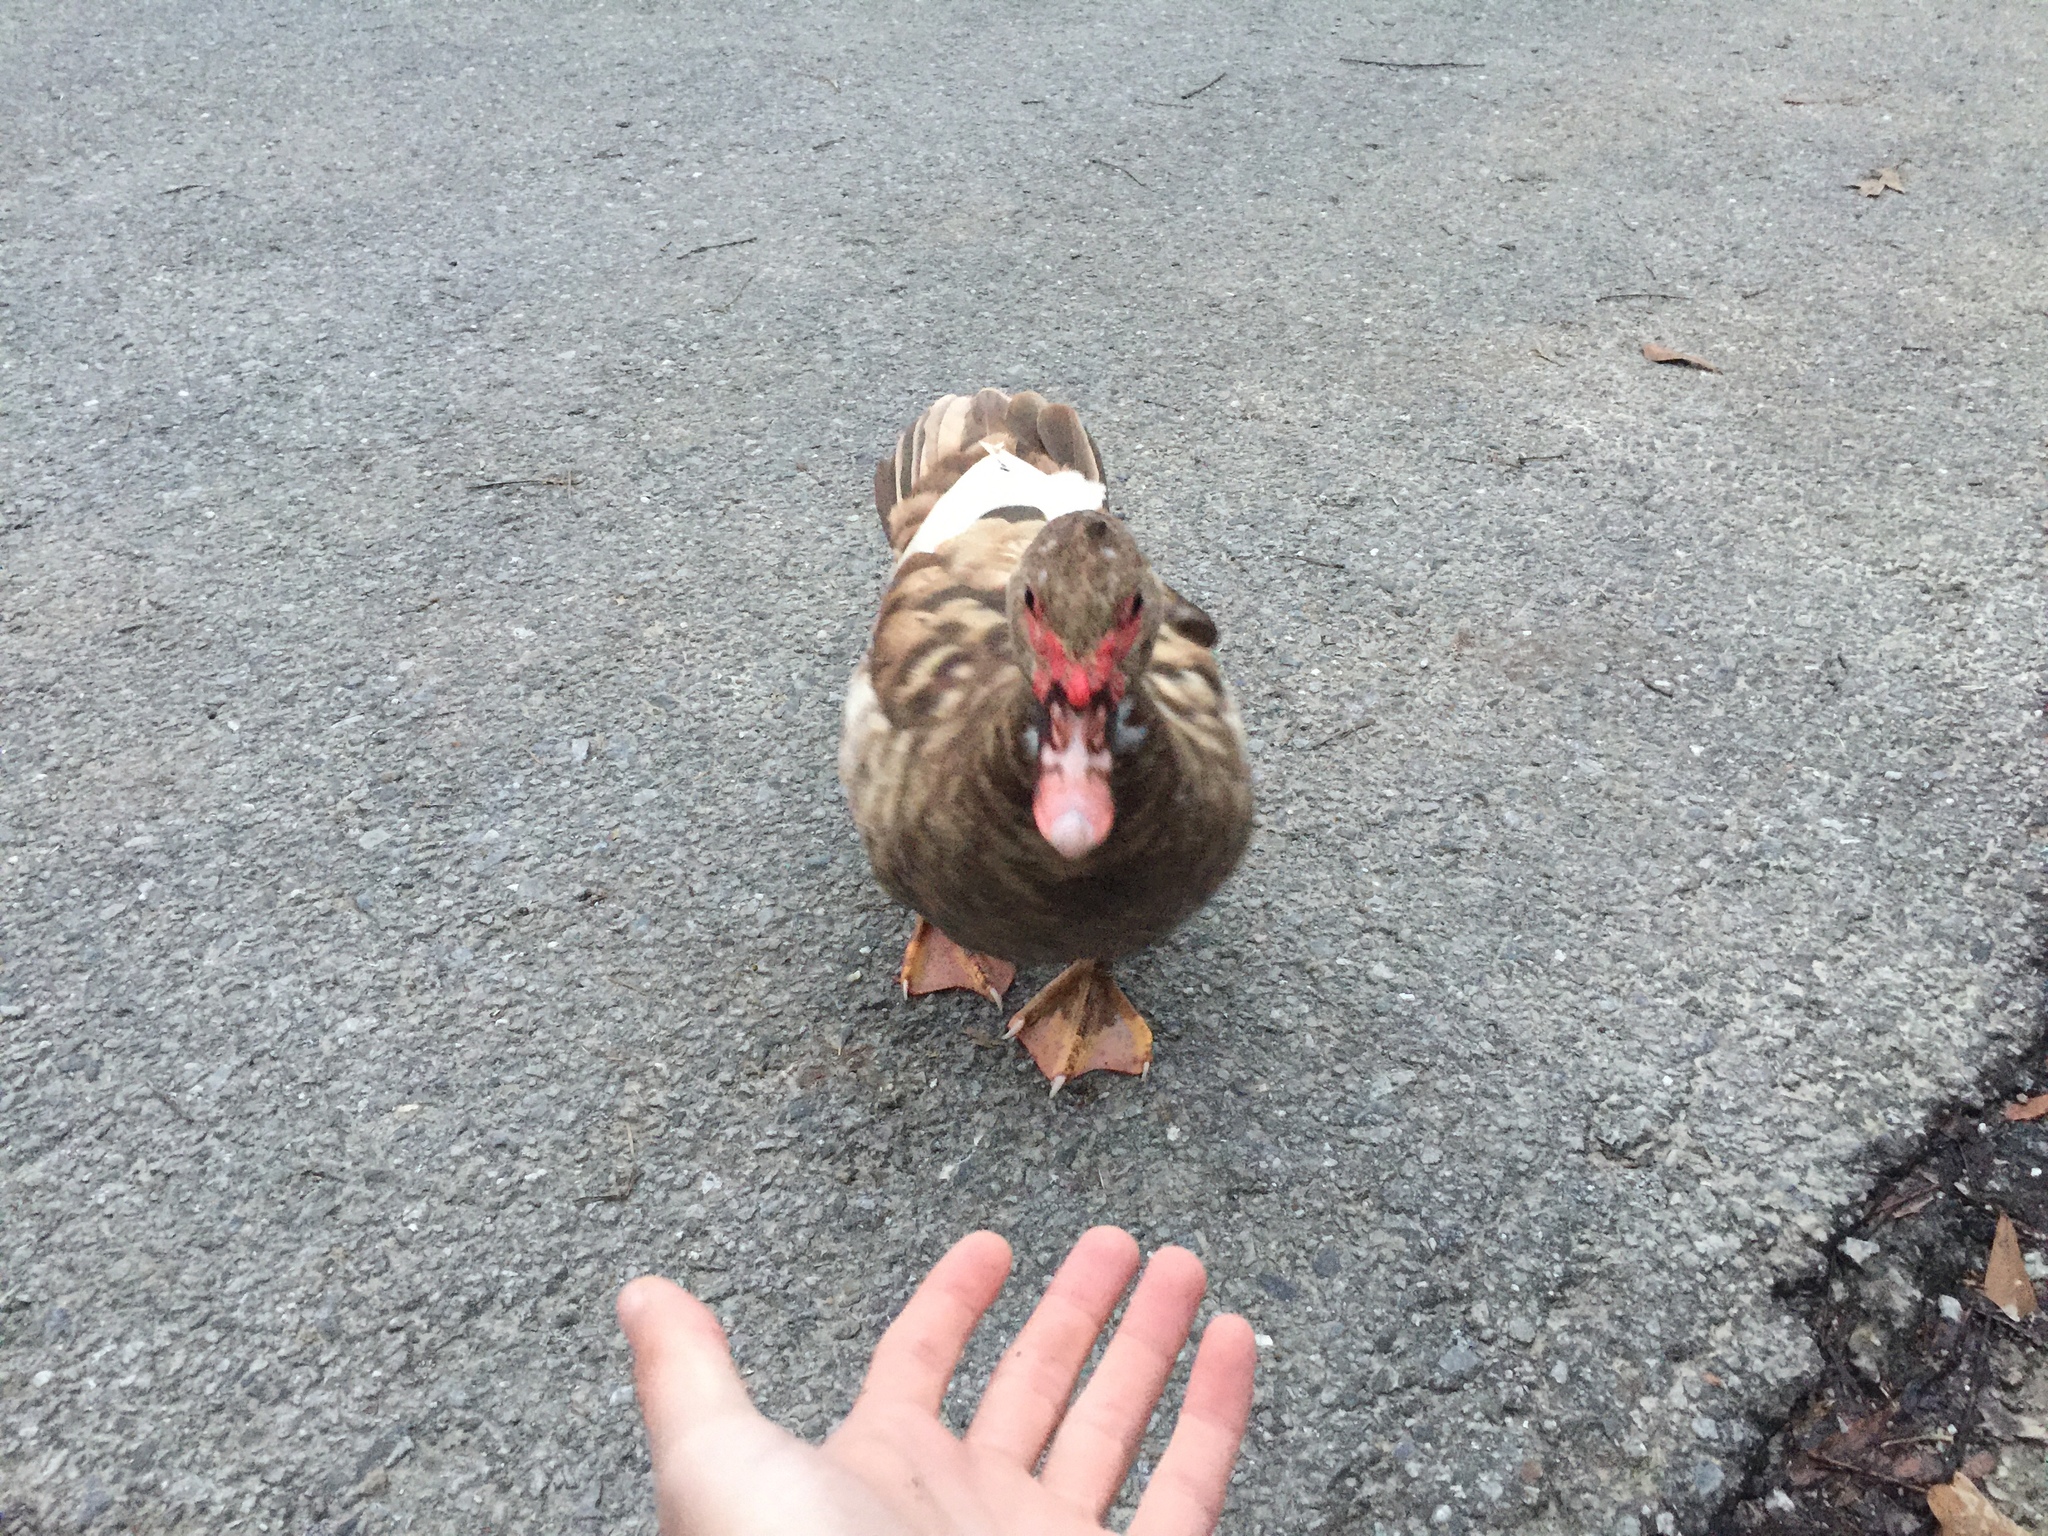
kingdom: Animalia
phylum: Chordata
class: Aves
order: Anseriformes
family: Anatidae
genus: Cairina
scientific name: Cairina moschata
